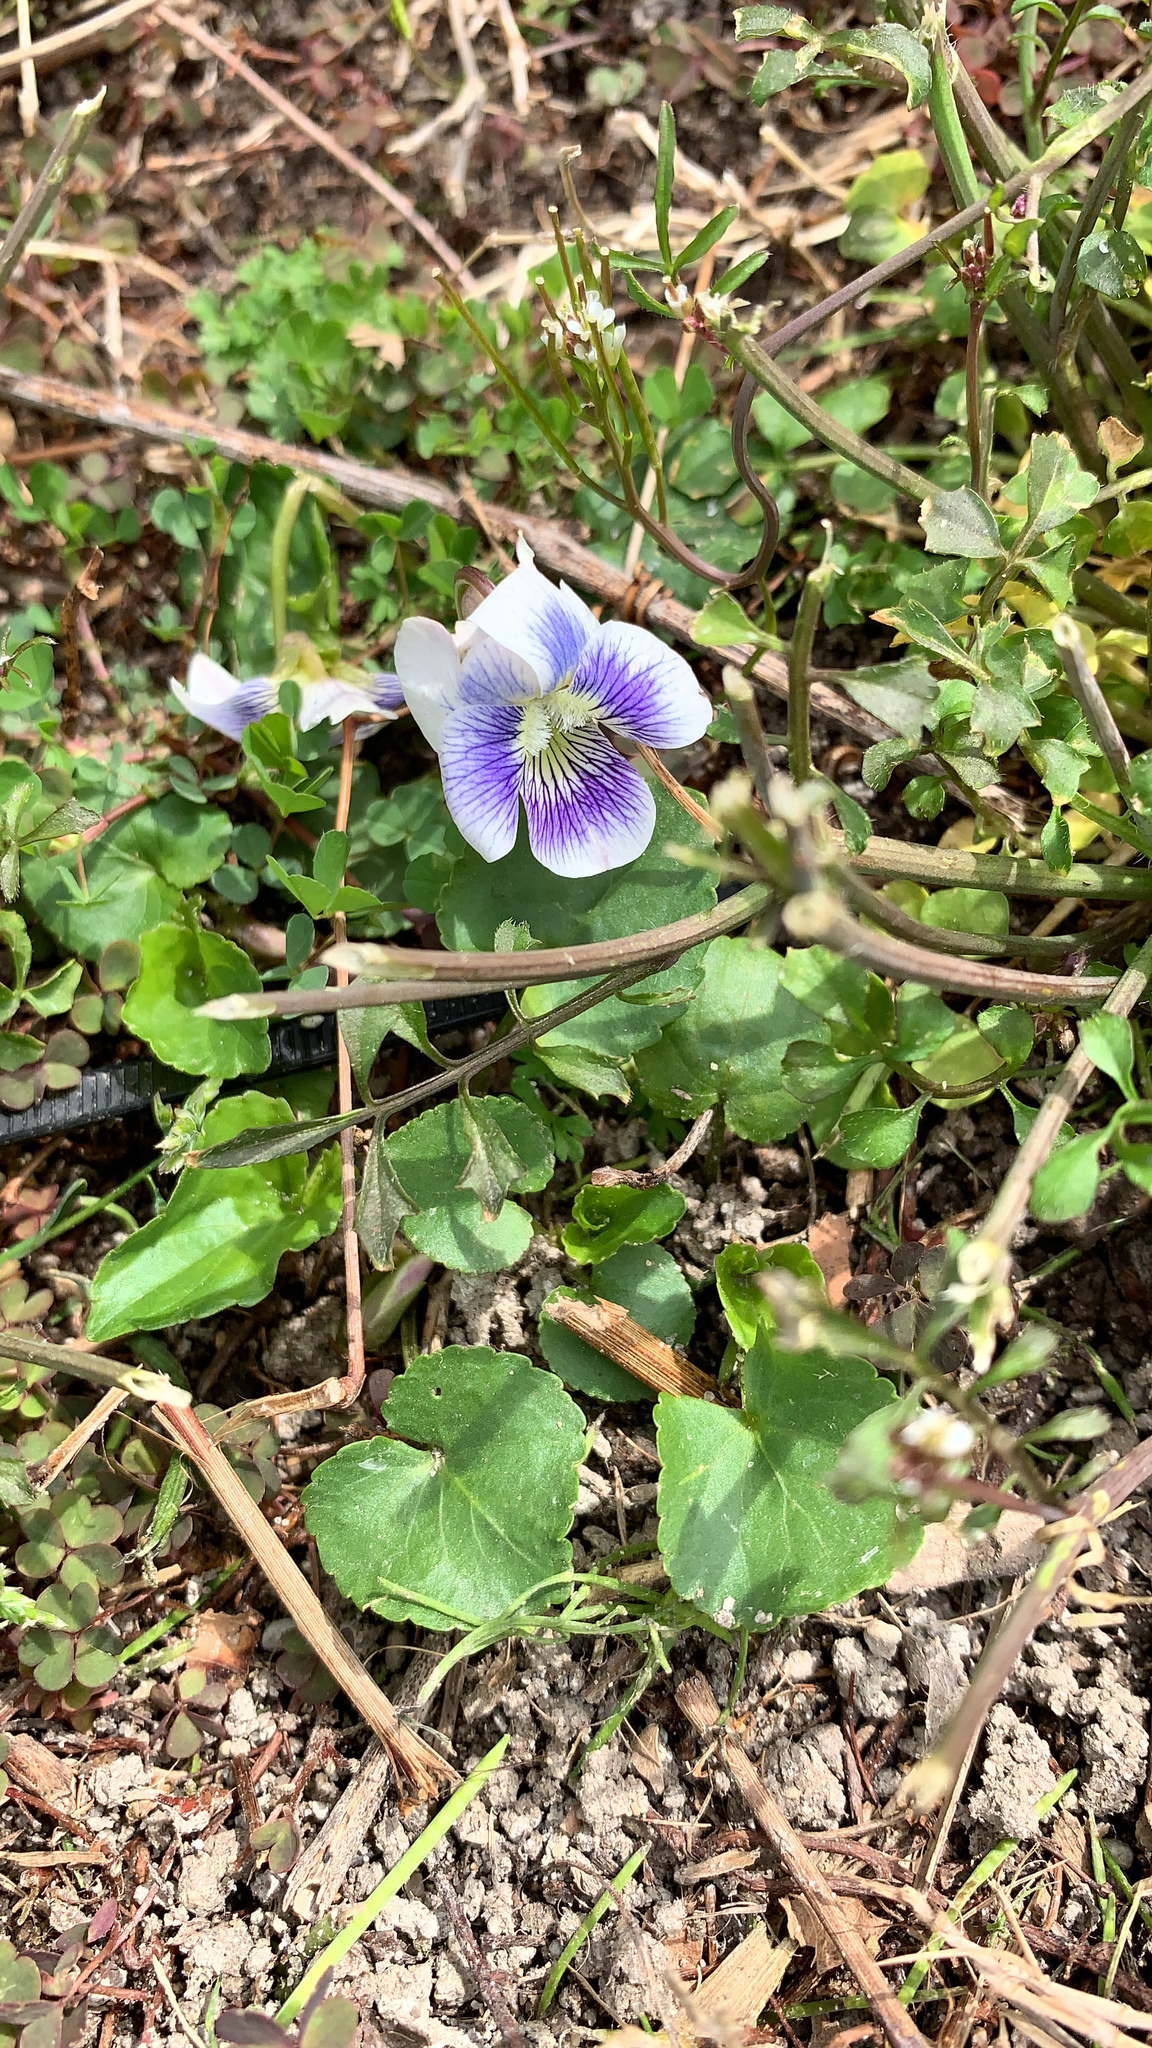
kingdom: Plantae
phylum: Tracheophyta
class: Magnoliopsida
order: Malpighiales
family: Violaceae
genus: Viola
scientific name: Viola sororia
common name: Dooryard violet
